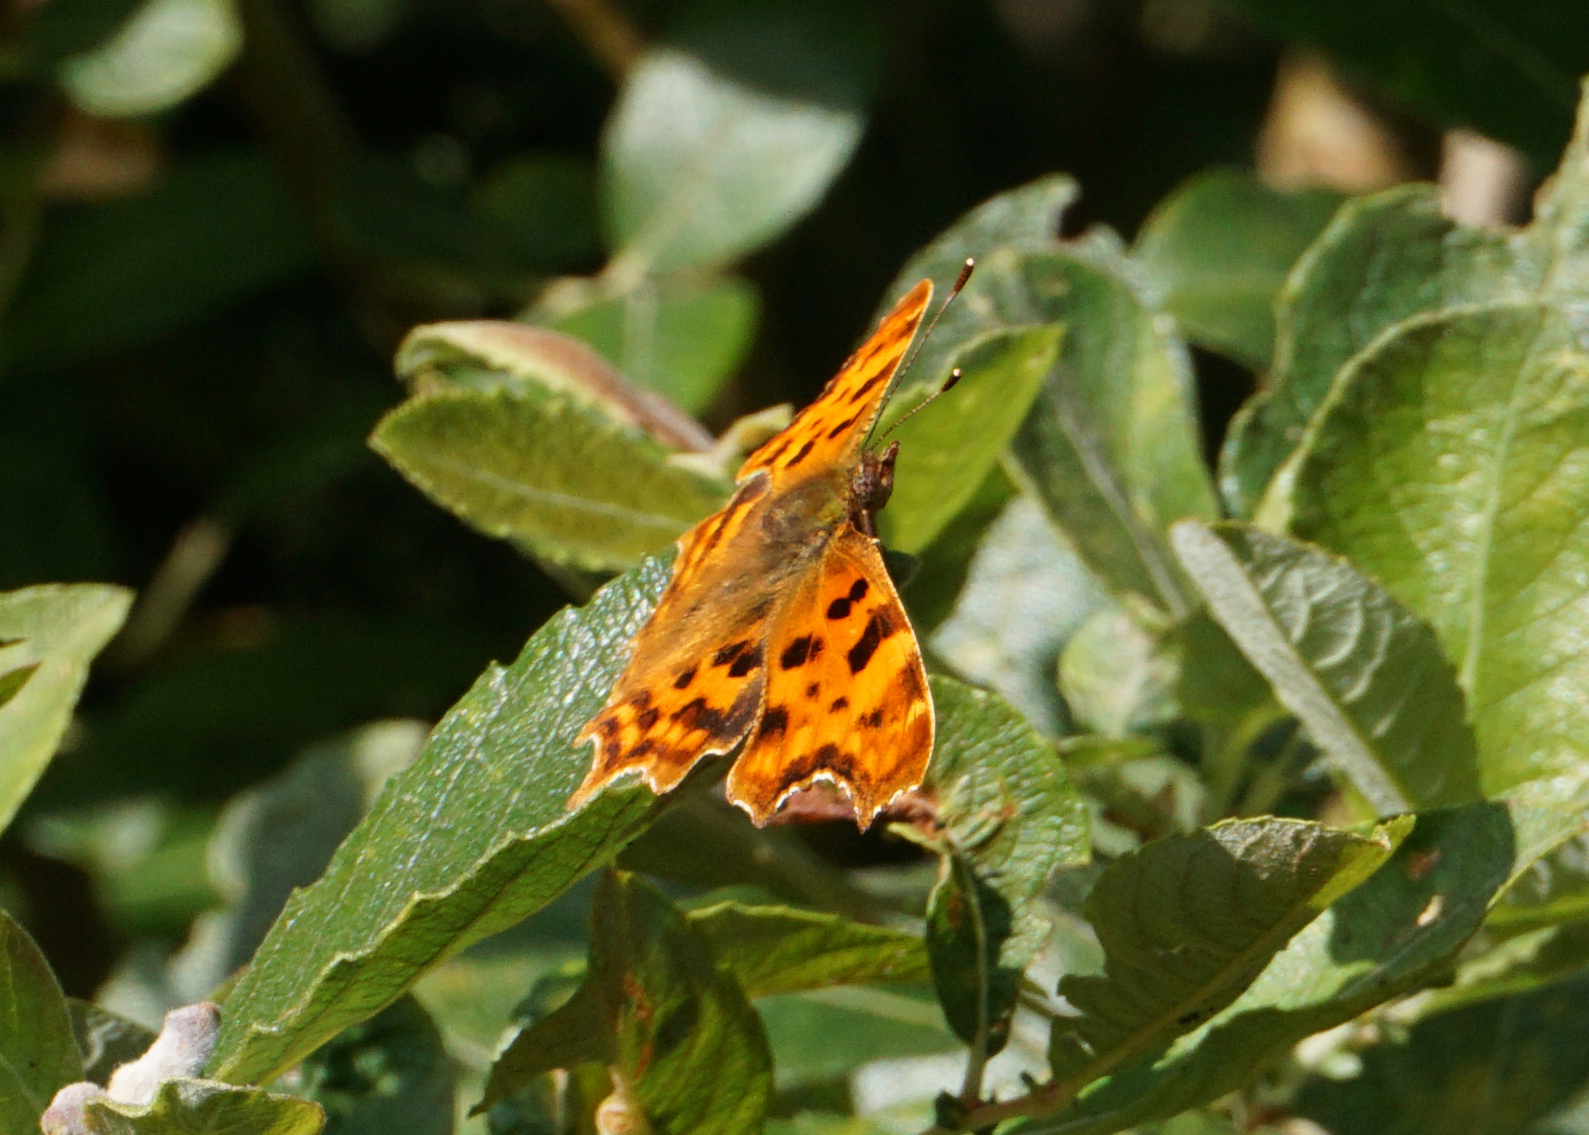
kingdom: Animalia
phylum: Arthropoda
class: Insecta
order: Lepidoptera
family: Nymphalidae
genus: Polygonia
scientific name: Polygonia c-album
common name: Comma
